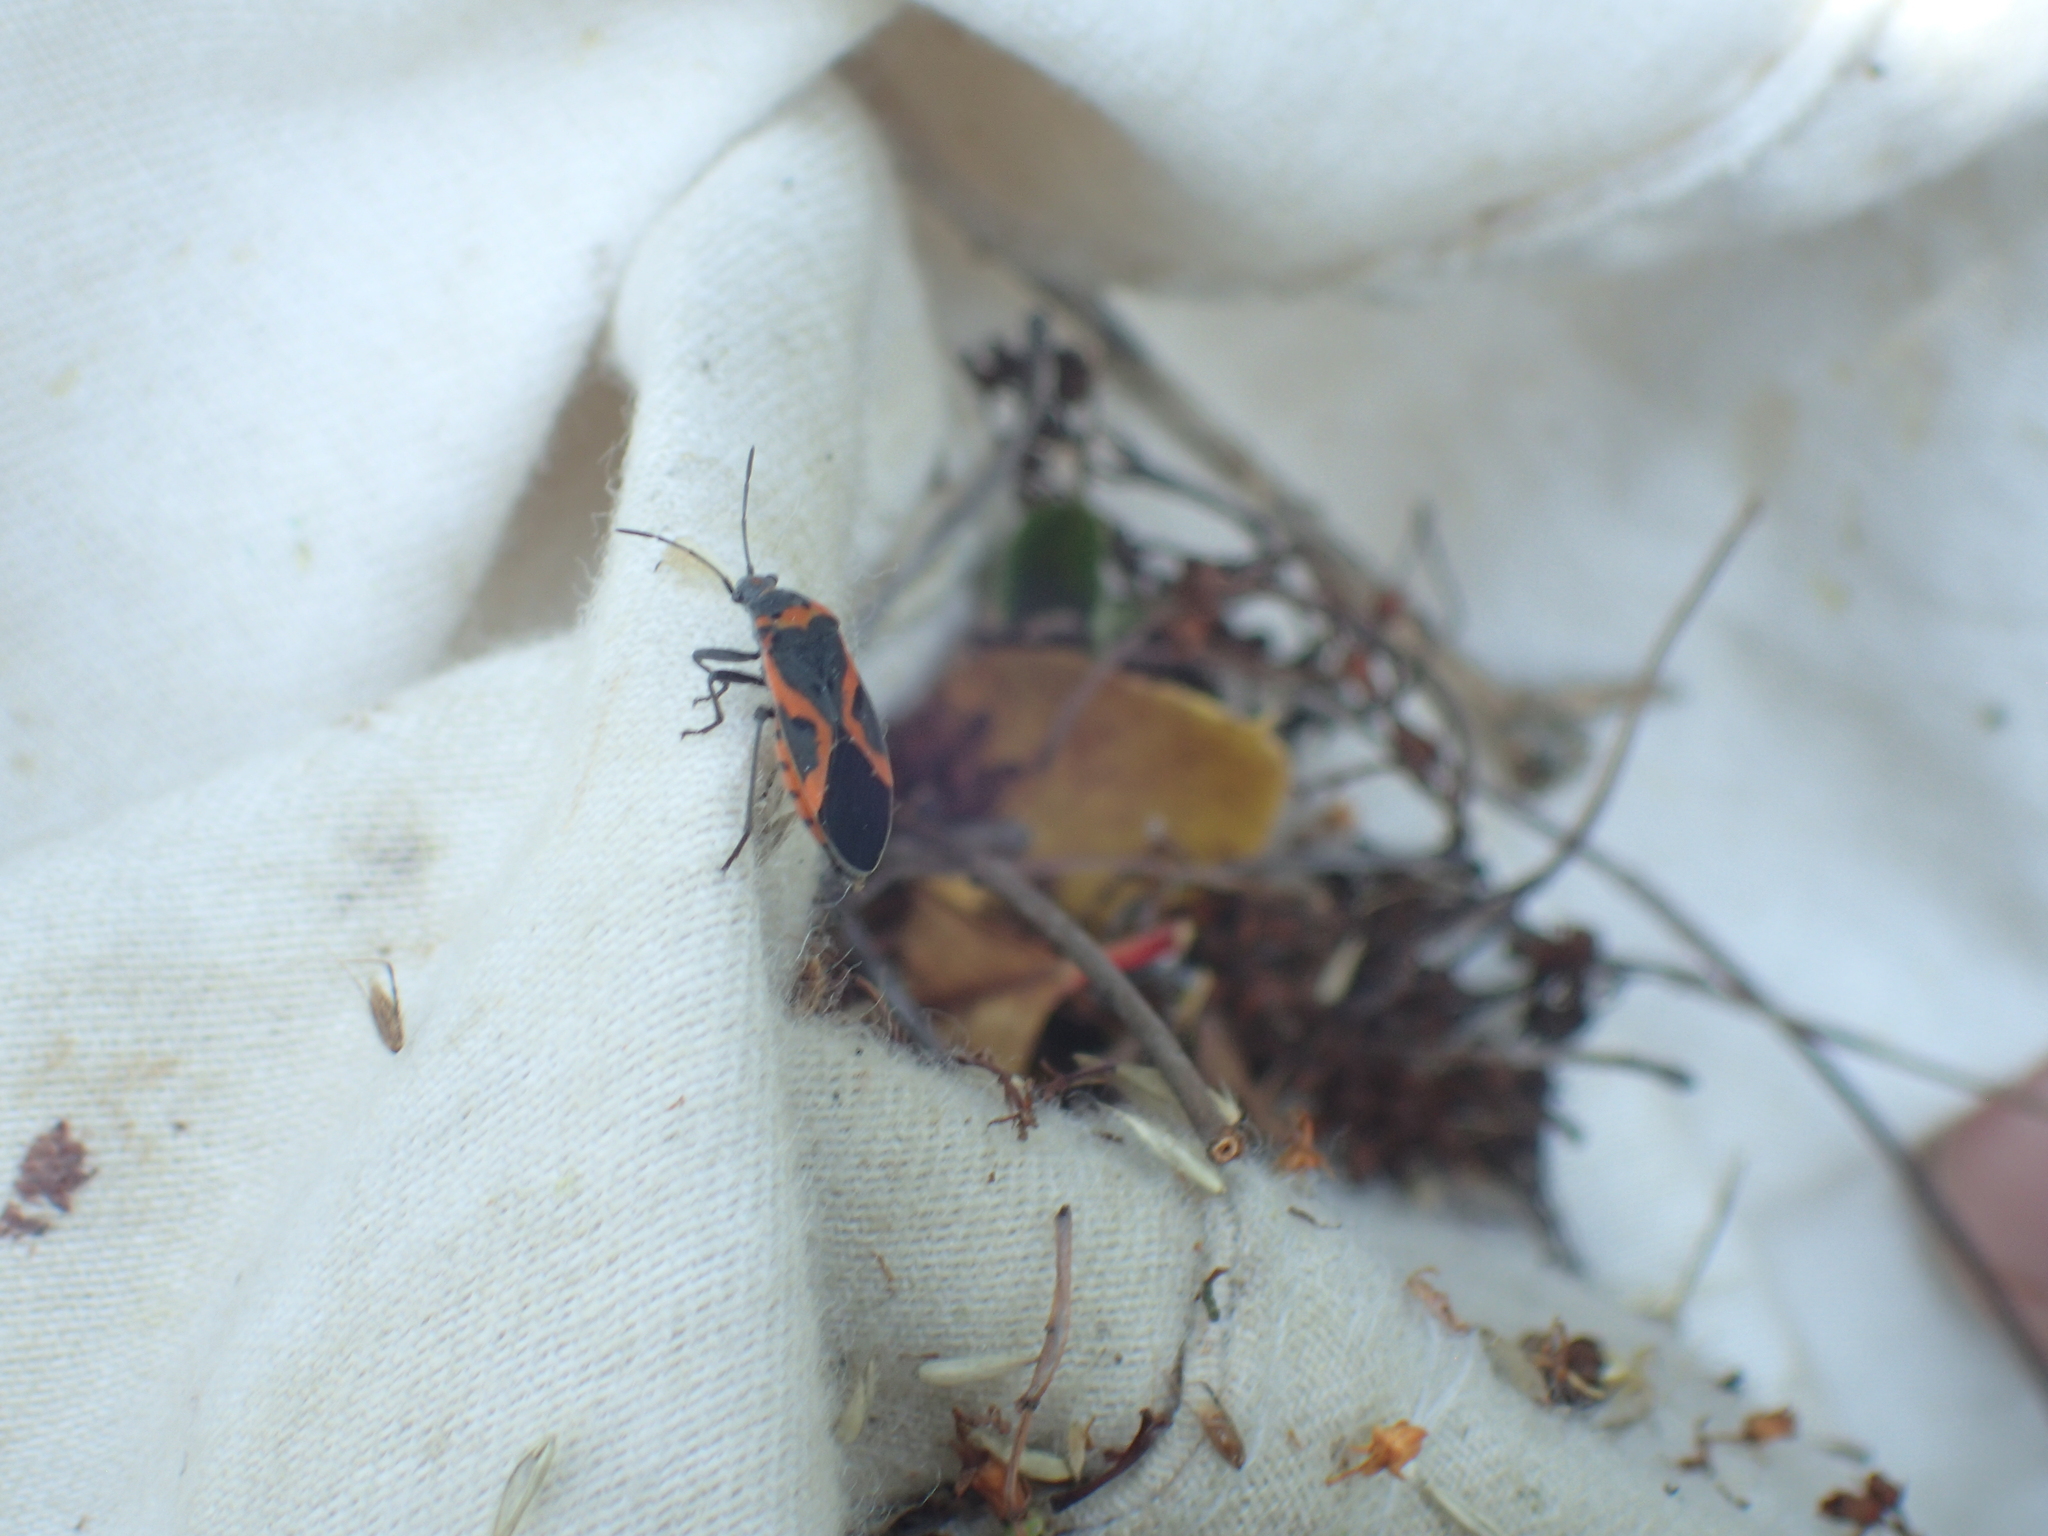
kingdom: Animalia
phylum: Arthropoda
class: Insecta
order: Hemiptera
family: Lygaeidae
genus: Lygaeus
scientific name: Lygaeus kalmii
